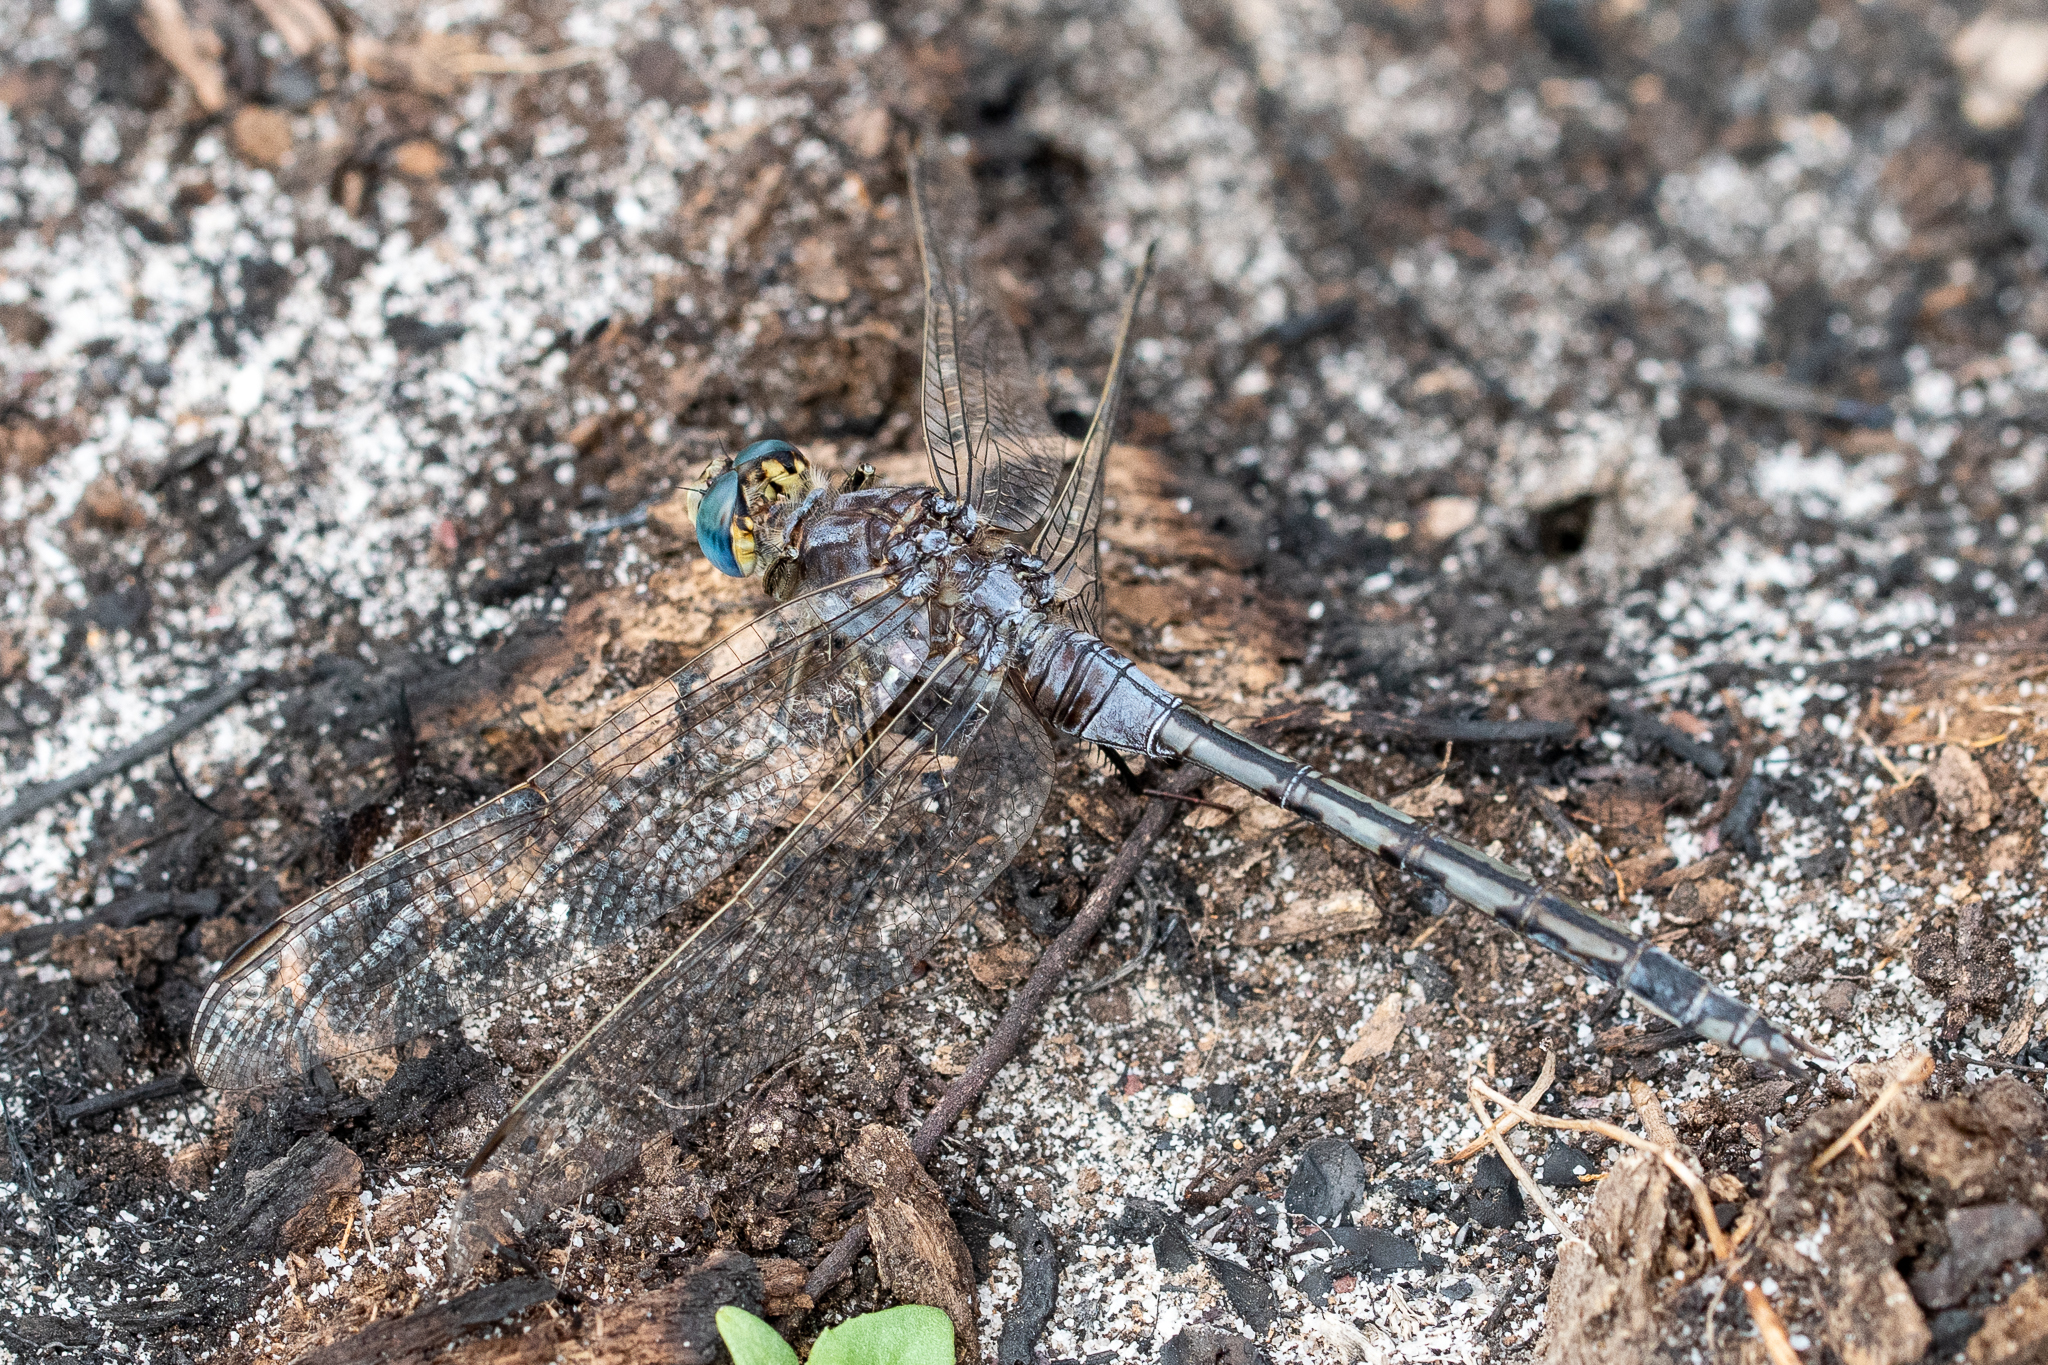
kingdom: Animalia
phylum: Arthropoda
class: Insecta
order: Odonata
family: Libellulidae
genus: Orthetrum
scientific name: Orthetrum trinacria
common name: Long skimmer
